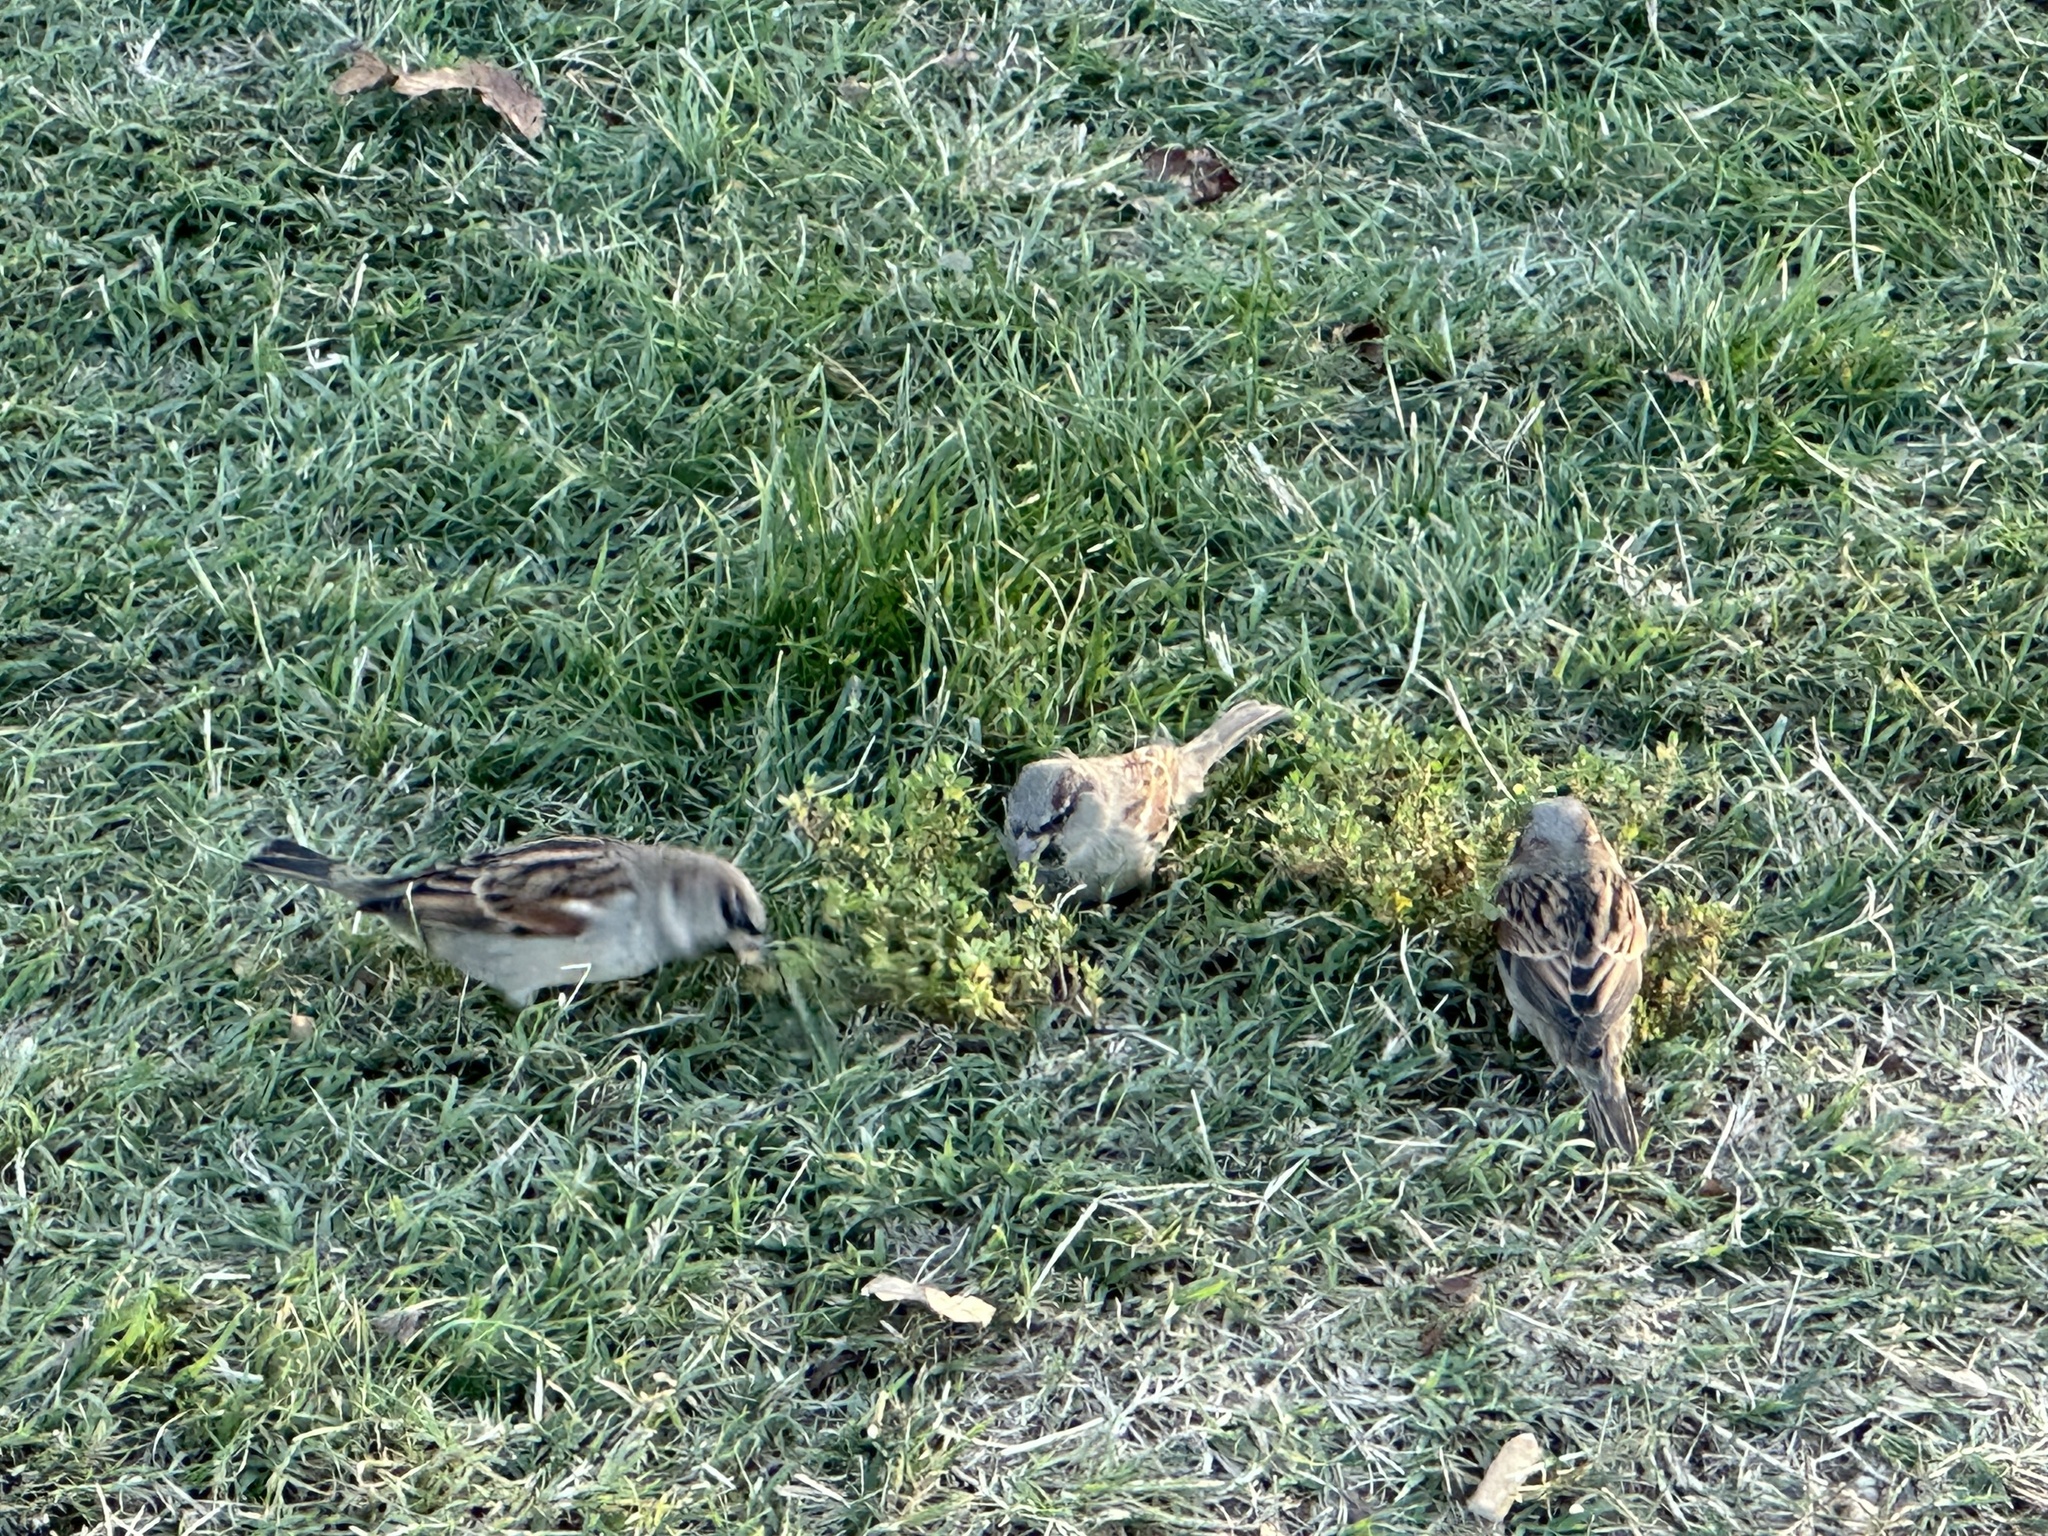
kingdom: Animalia
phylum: Chordata
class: Aves
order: Passeriformes
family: Passeridae
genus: Passer
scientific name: Passer domesticus
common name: House sparrow
